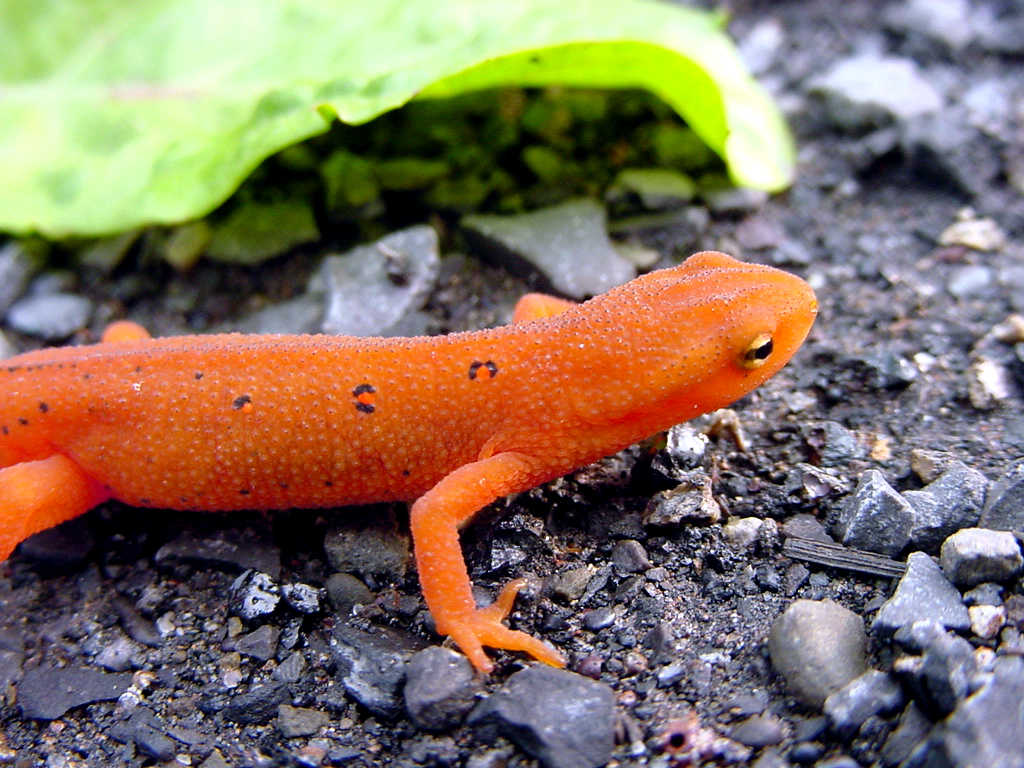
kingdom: Animalia
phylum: Chordata
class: Amphibia
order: Caudata
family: Salamandridae
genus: Notophthalmus
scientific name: Notophthalmus viridescens
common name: Eastern newt
